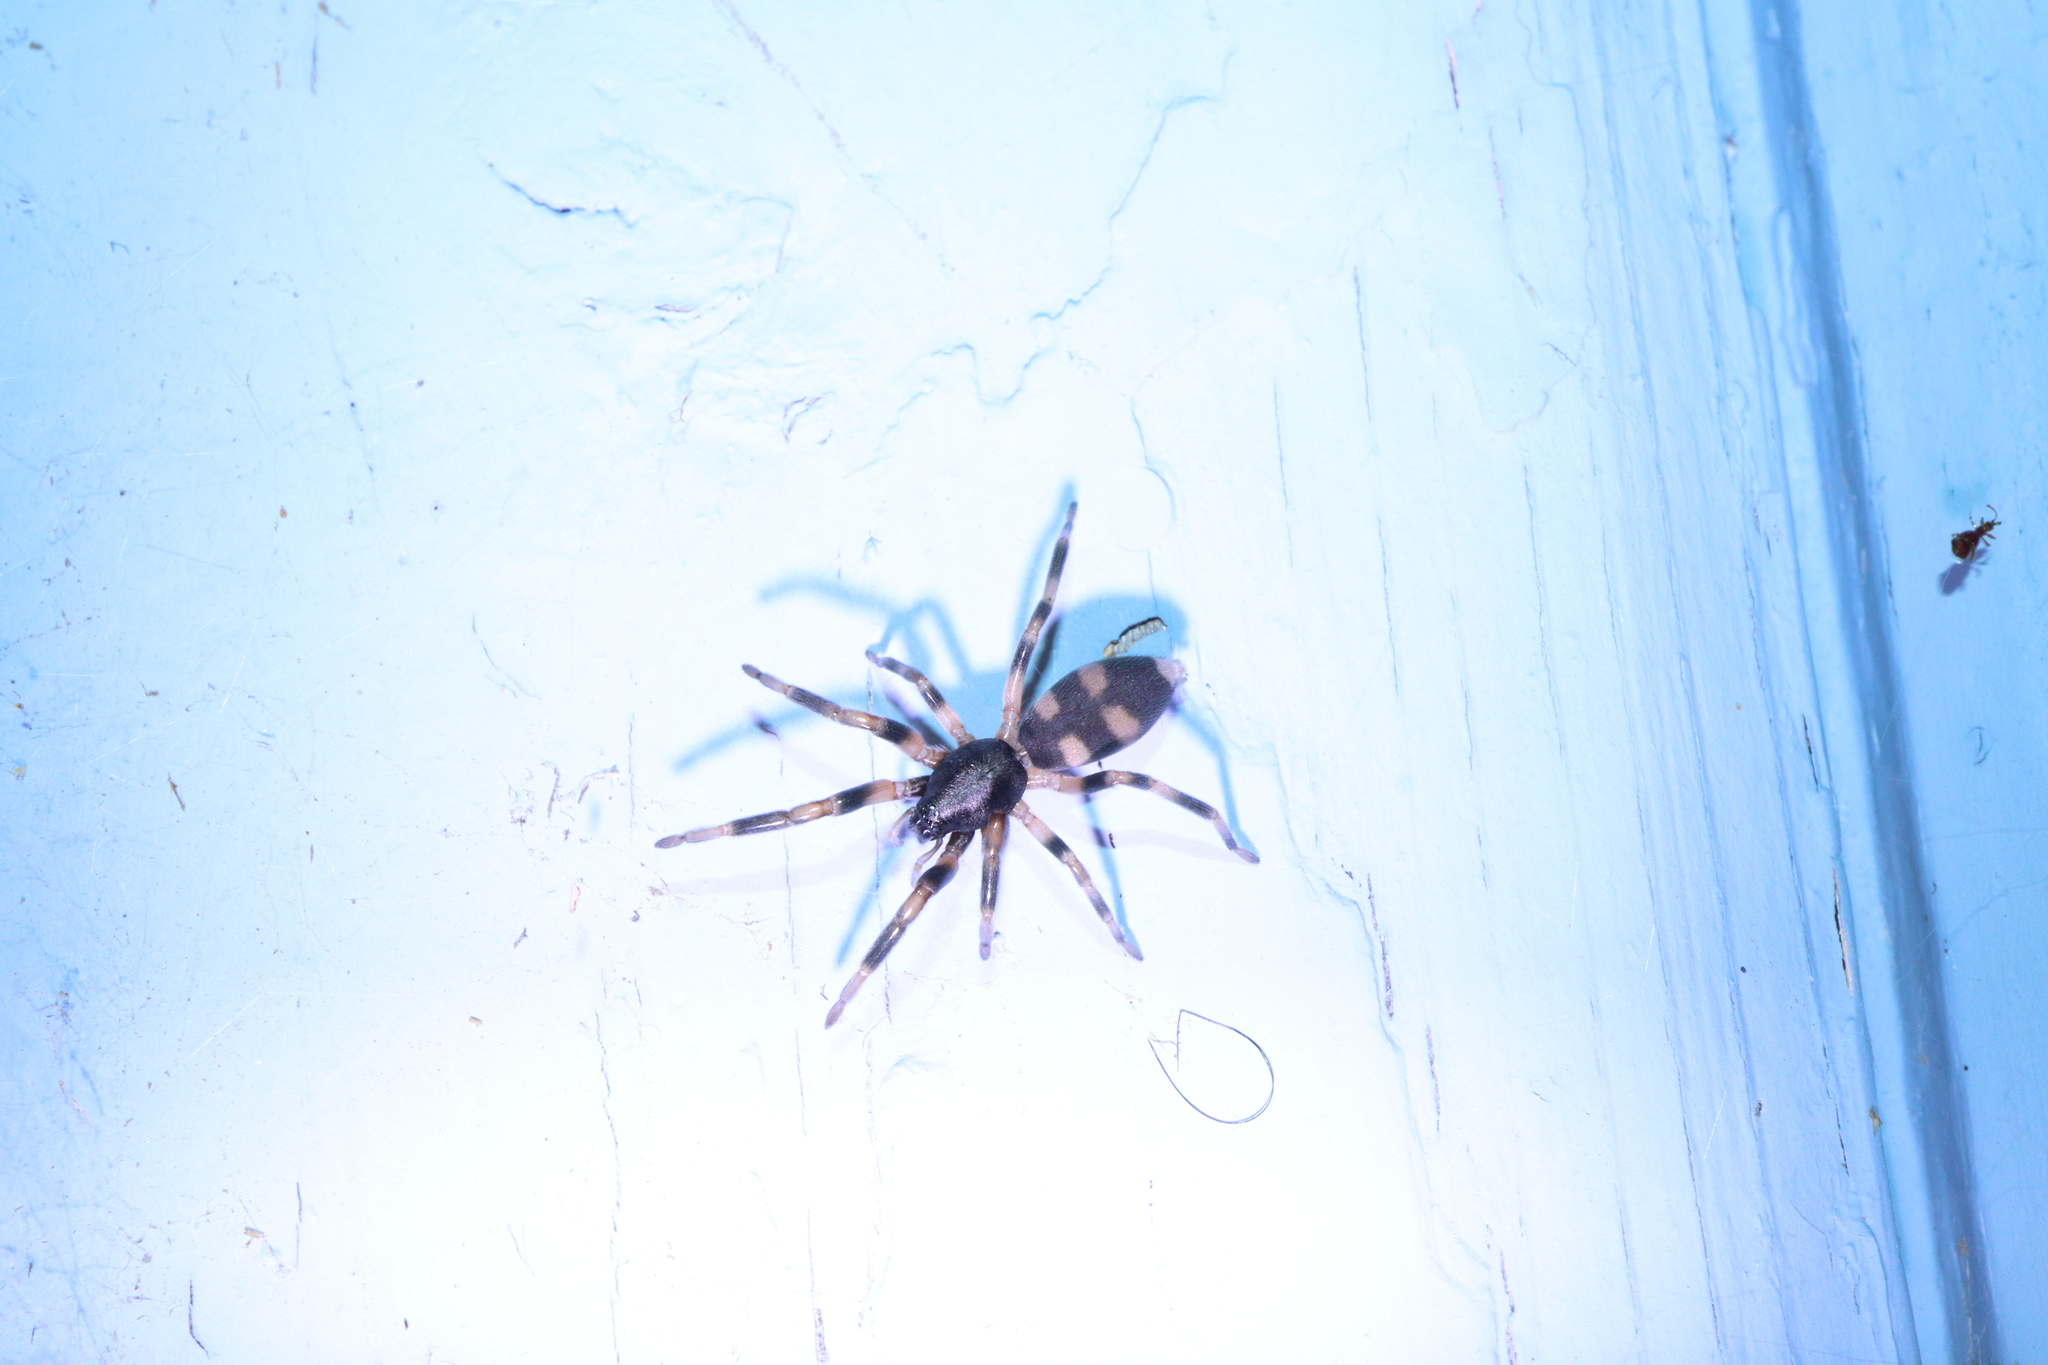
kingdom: Animalia
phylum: Arthropoda
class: Arachnida
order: Araneae
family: Lamponidae
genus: Lampona
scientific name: Lampona
